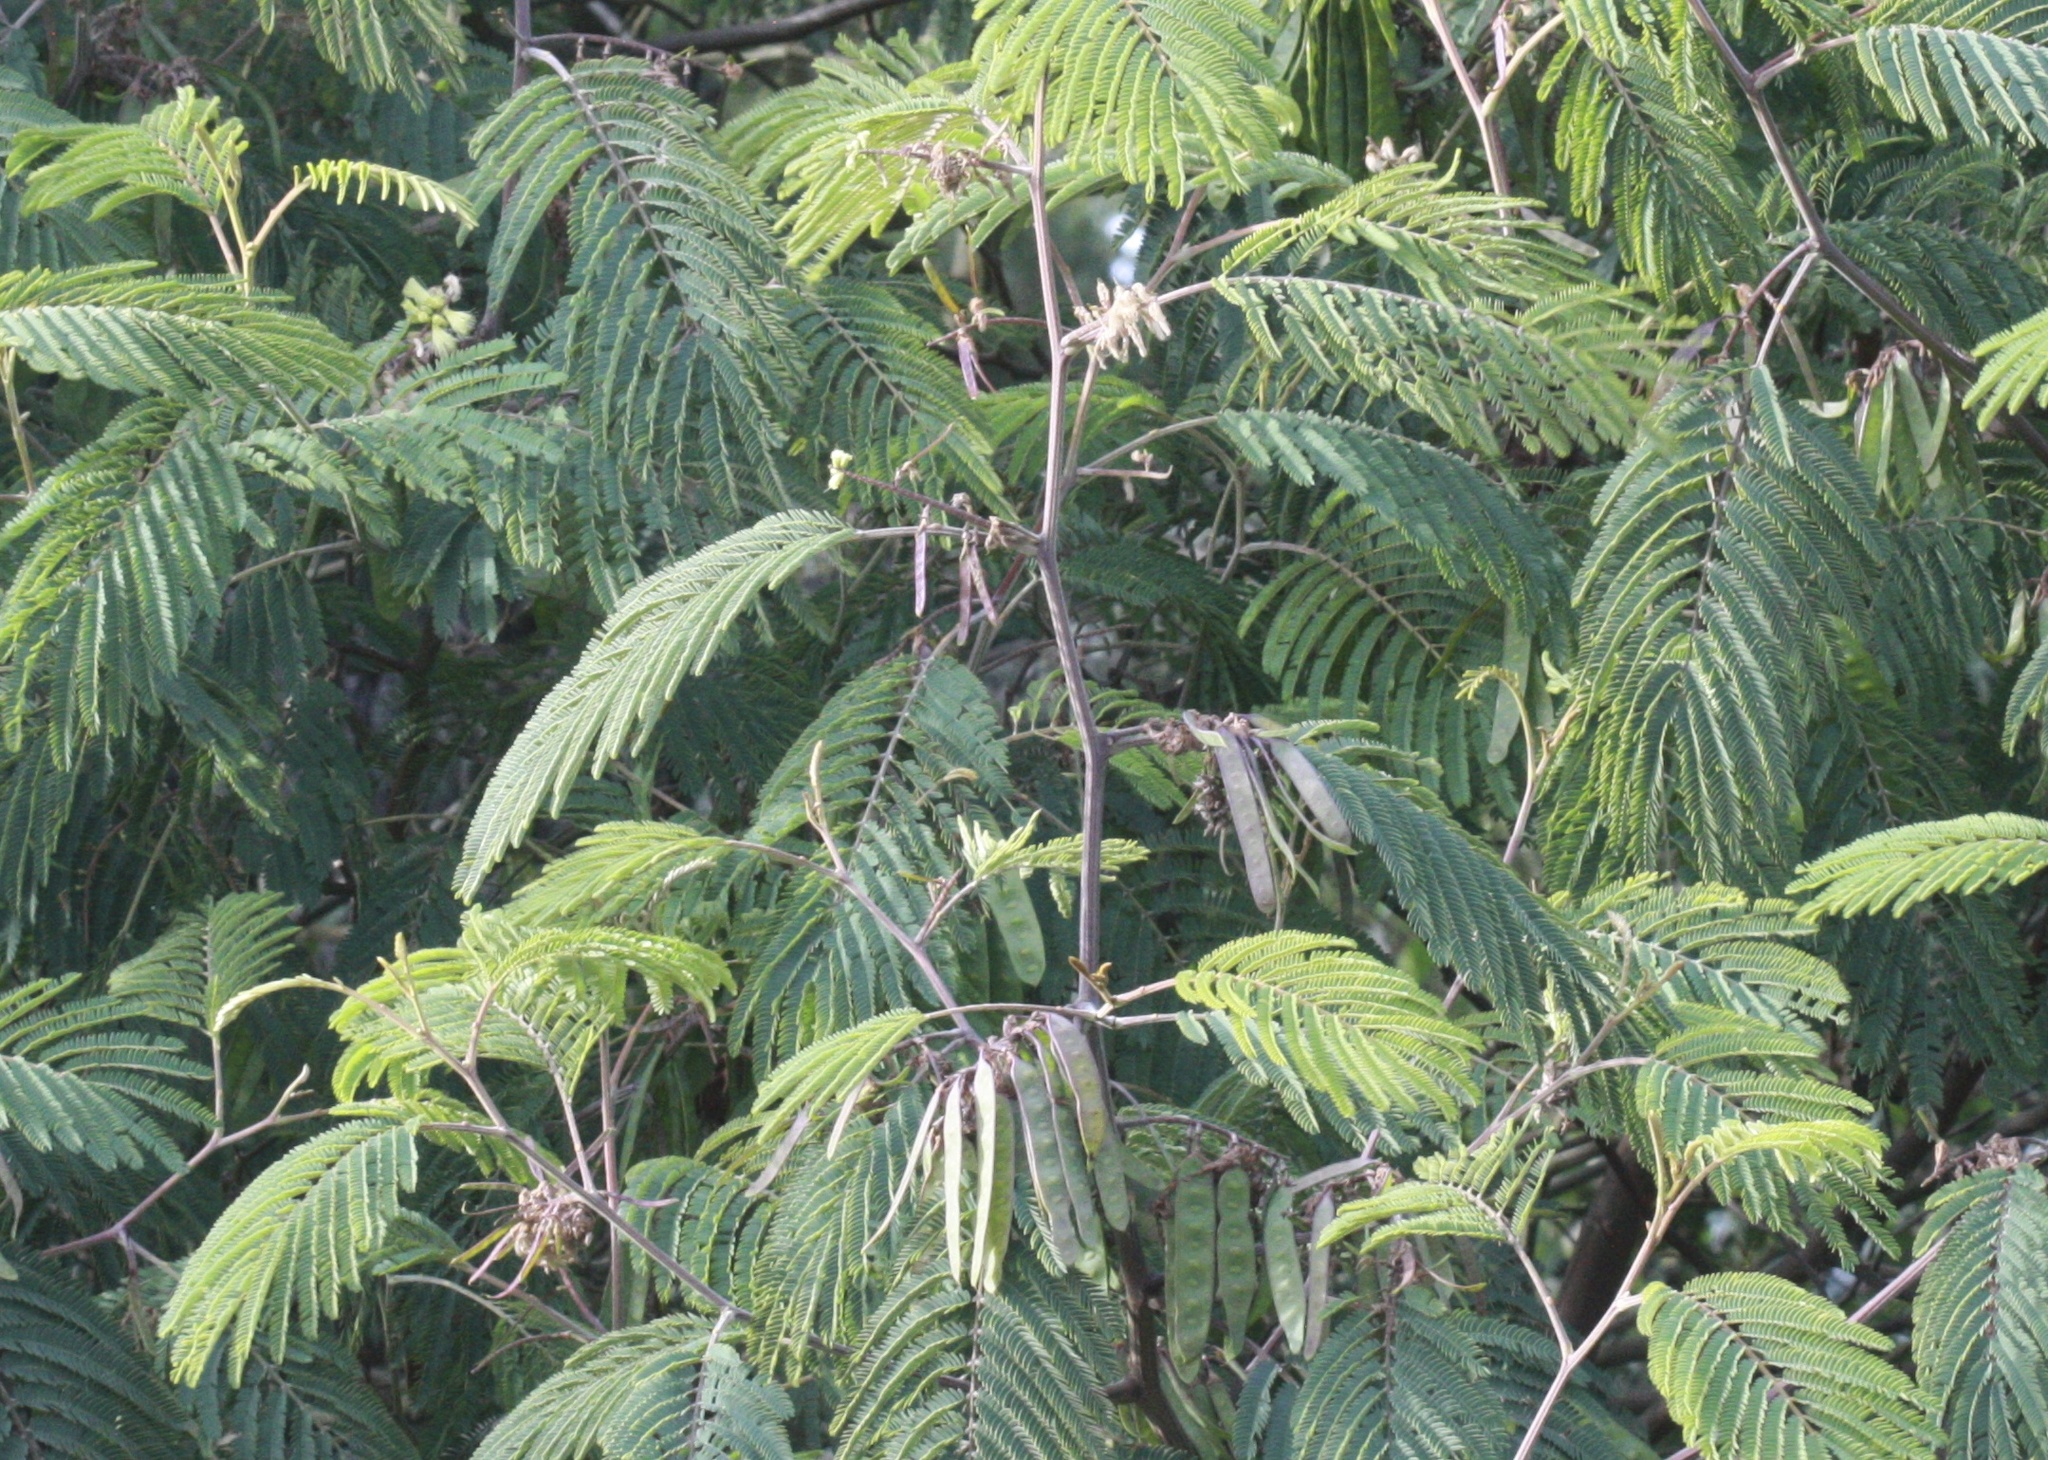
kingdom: Plantae
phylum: Tracheophyta
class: Magnoliopsida
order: Fabales
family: Fabaceae
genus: Paraserianthes
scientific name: Paraserianthes lophantha
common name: Plume albizia
